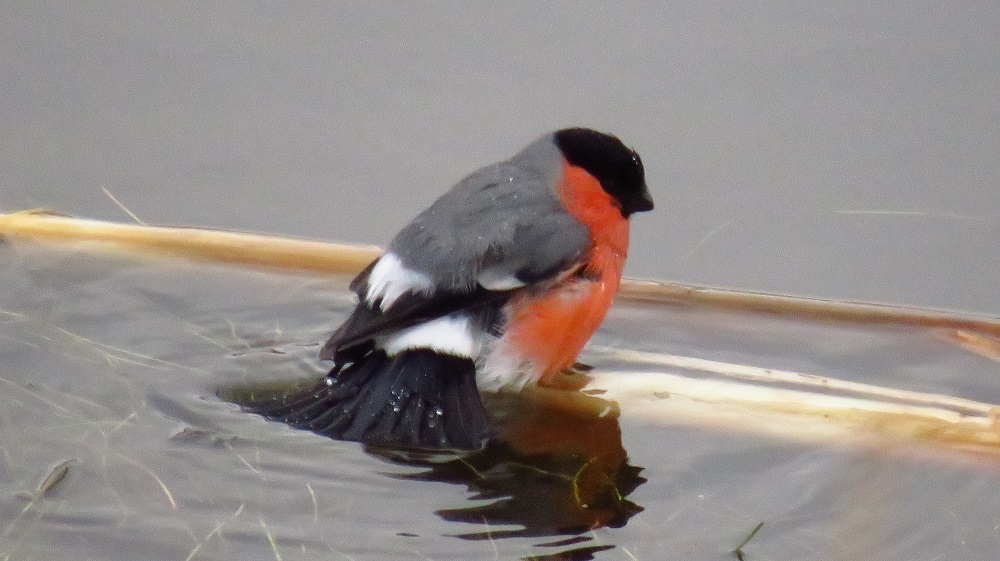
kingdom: Animalia
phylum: Chordata
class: Aves
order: Passeriformes
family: Fringillidae
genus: Pyrrhula
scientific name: Pyrrhula pyrrhula
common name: Eurasian bullfinch
